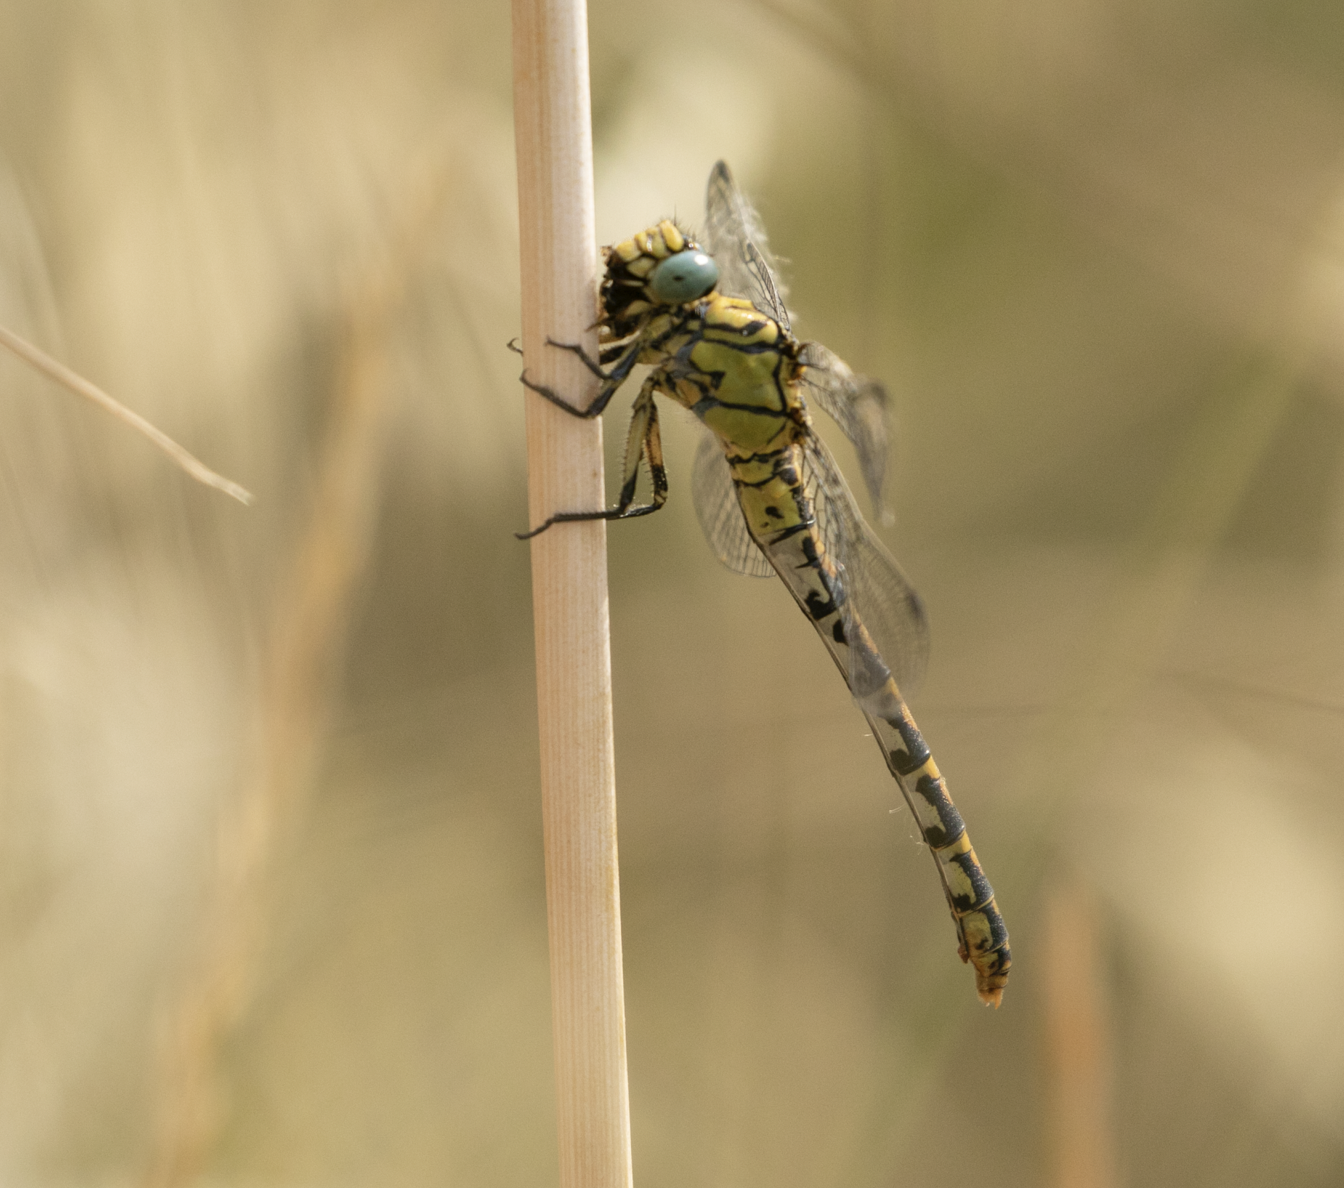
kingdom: Animalia
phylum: Arthropoda
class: Insecta
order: Odonata
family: Gomphidae
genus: Onychogomphus
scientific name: Onychogomphus forcipatus
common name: Small pincertail
